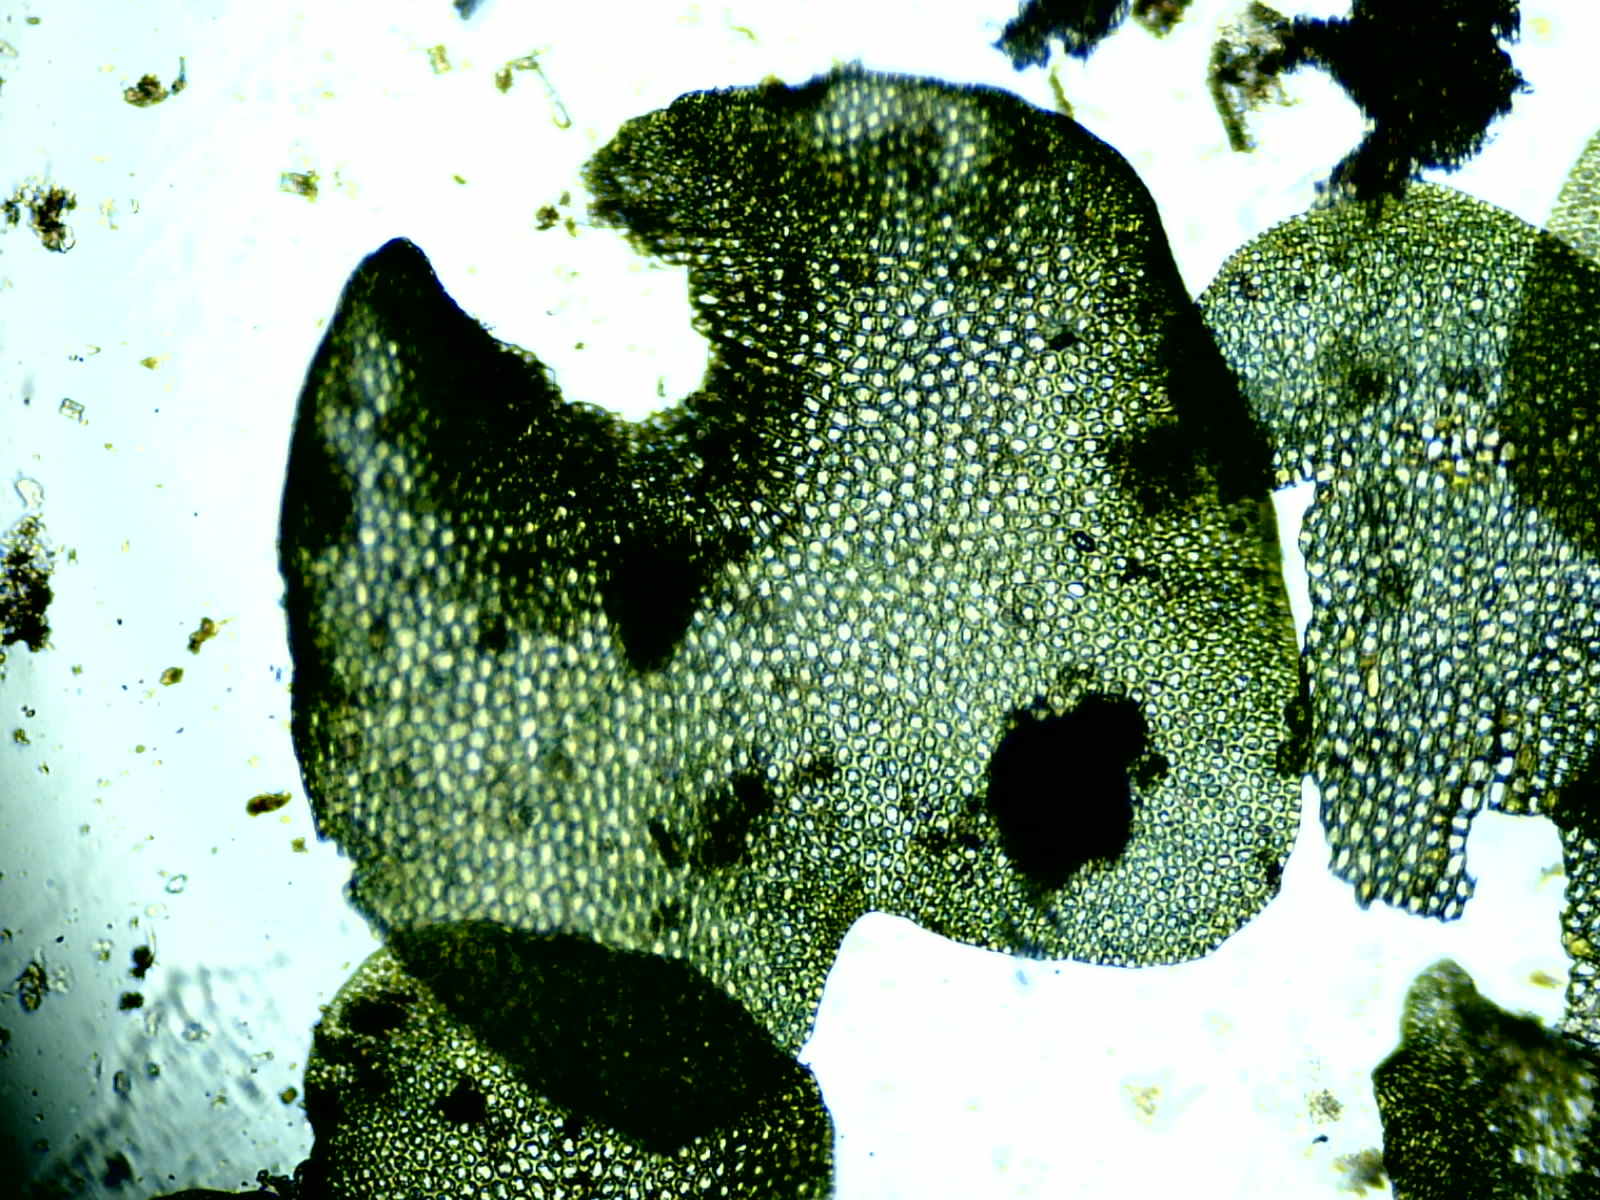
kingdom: Plantae
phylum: Marchantiophyta
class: Jungermanniopsida
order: Jungermanniales
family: Gymnomitriaceae
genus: Marsupella
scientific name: Marsupella emarginata
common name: Notched rustwort
